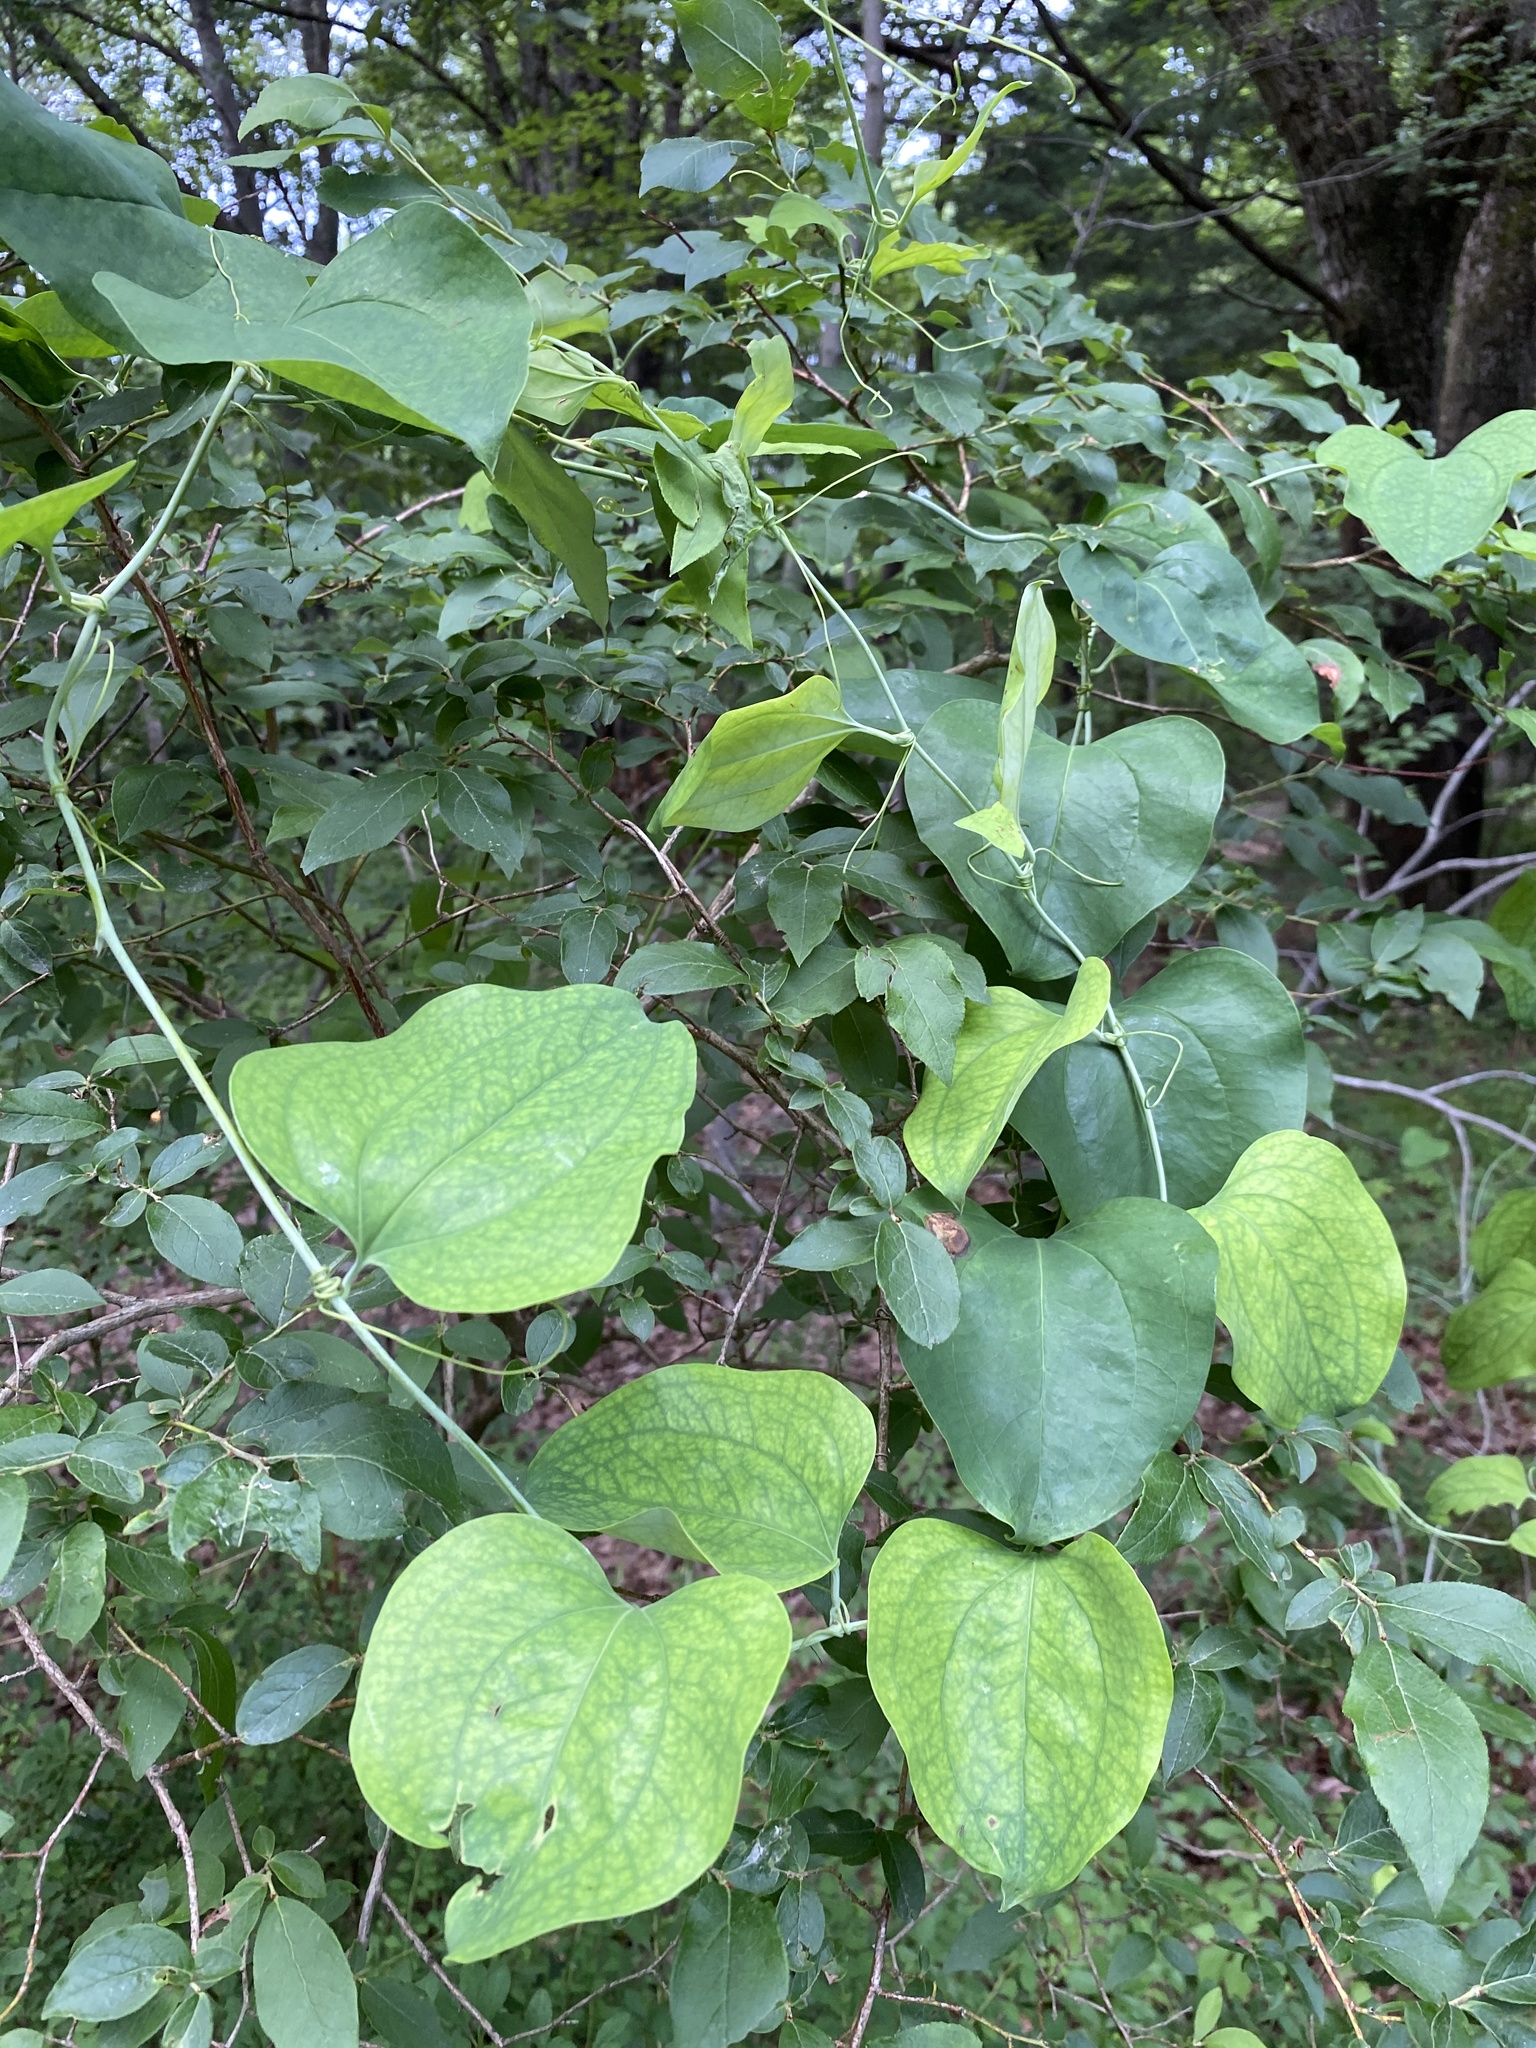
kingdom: Plantae
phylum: Tracheophyta
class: Liliopsida
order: Liliales
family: Smilacaceae
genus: Smilax
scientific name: Smilax glauca
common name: Cat greenbrier
